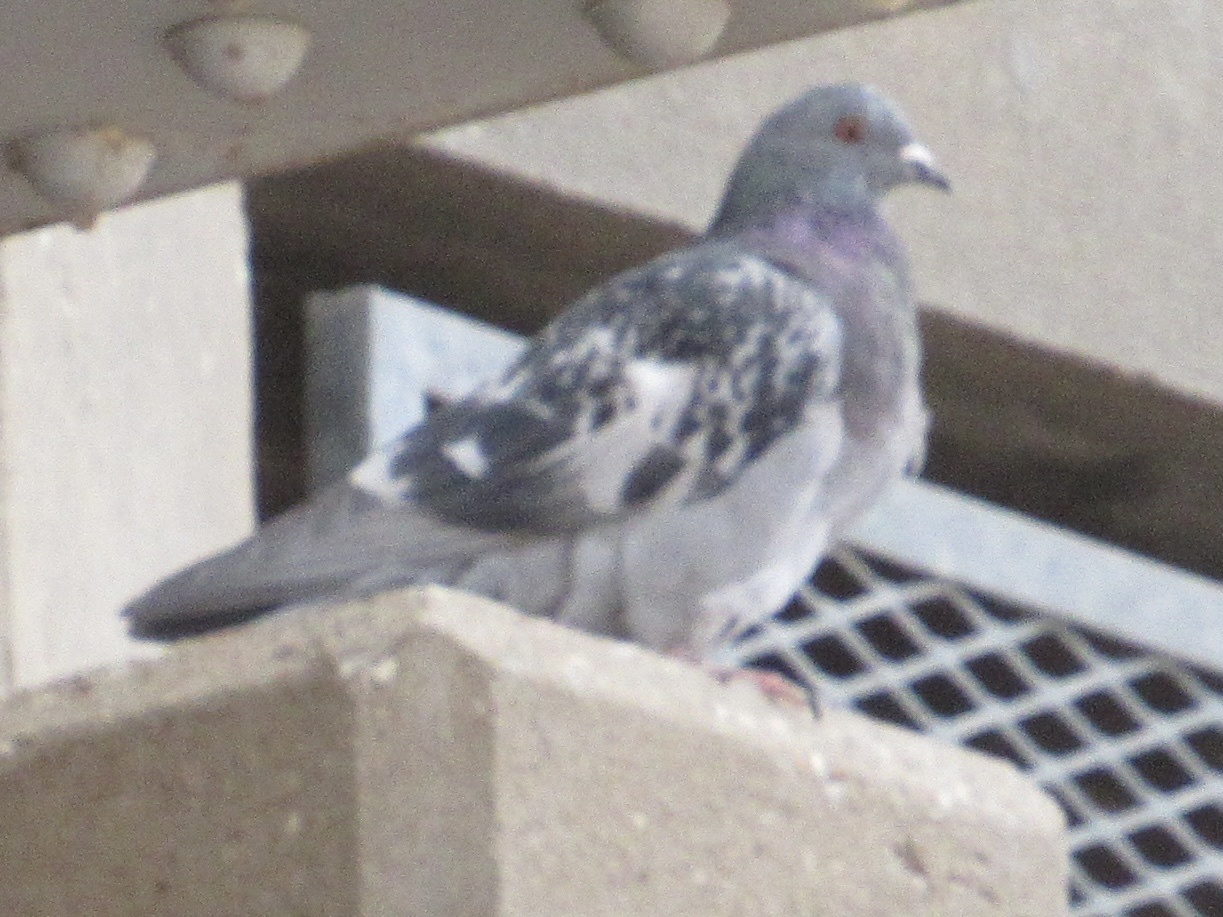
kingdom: Animalia
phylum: Chordata
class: Aves
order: Columbiformes
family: Columbidae
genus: Columba
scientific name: Columba livia
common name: Rock pigeon
